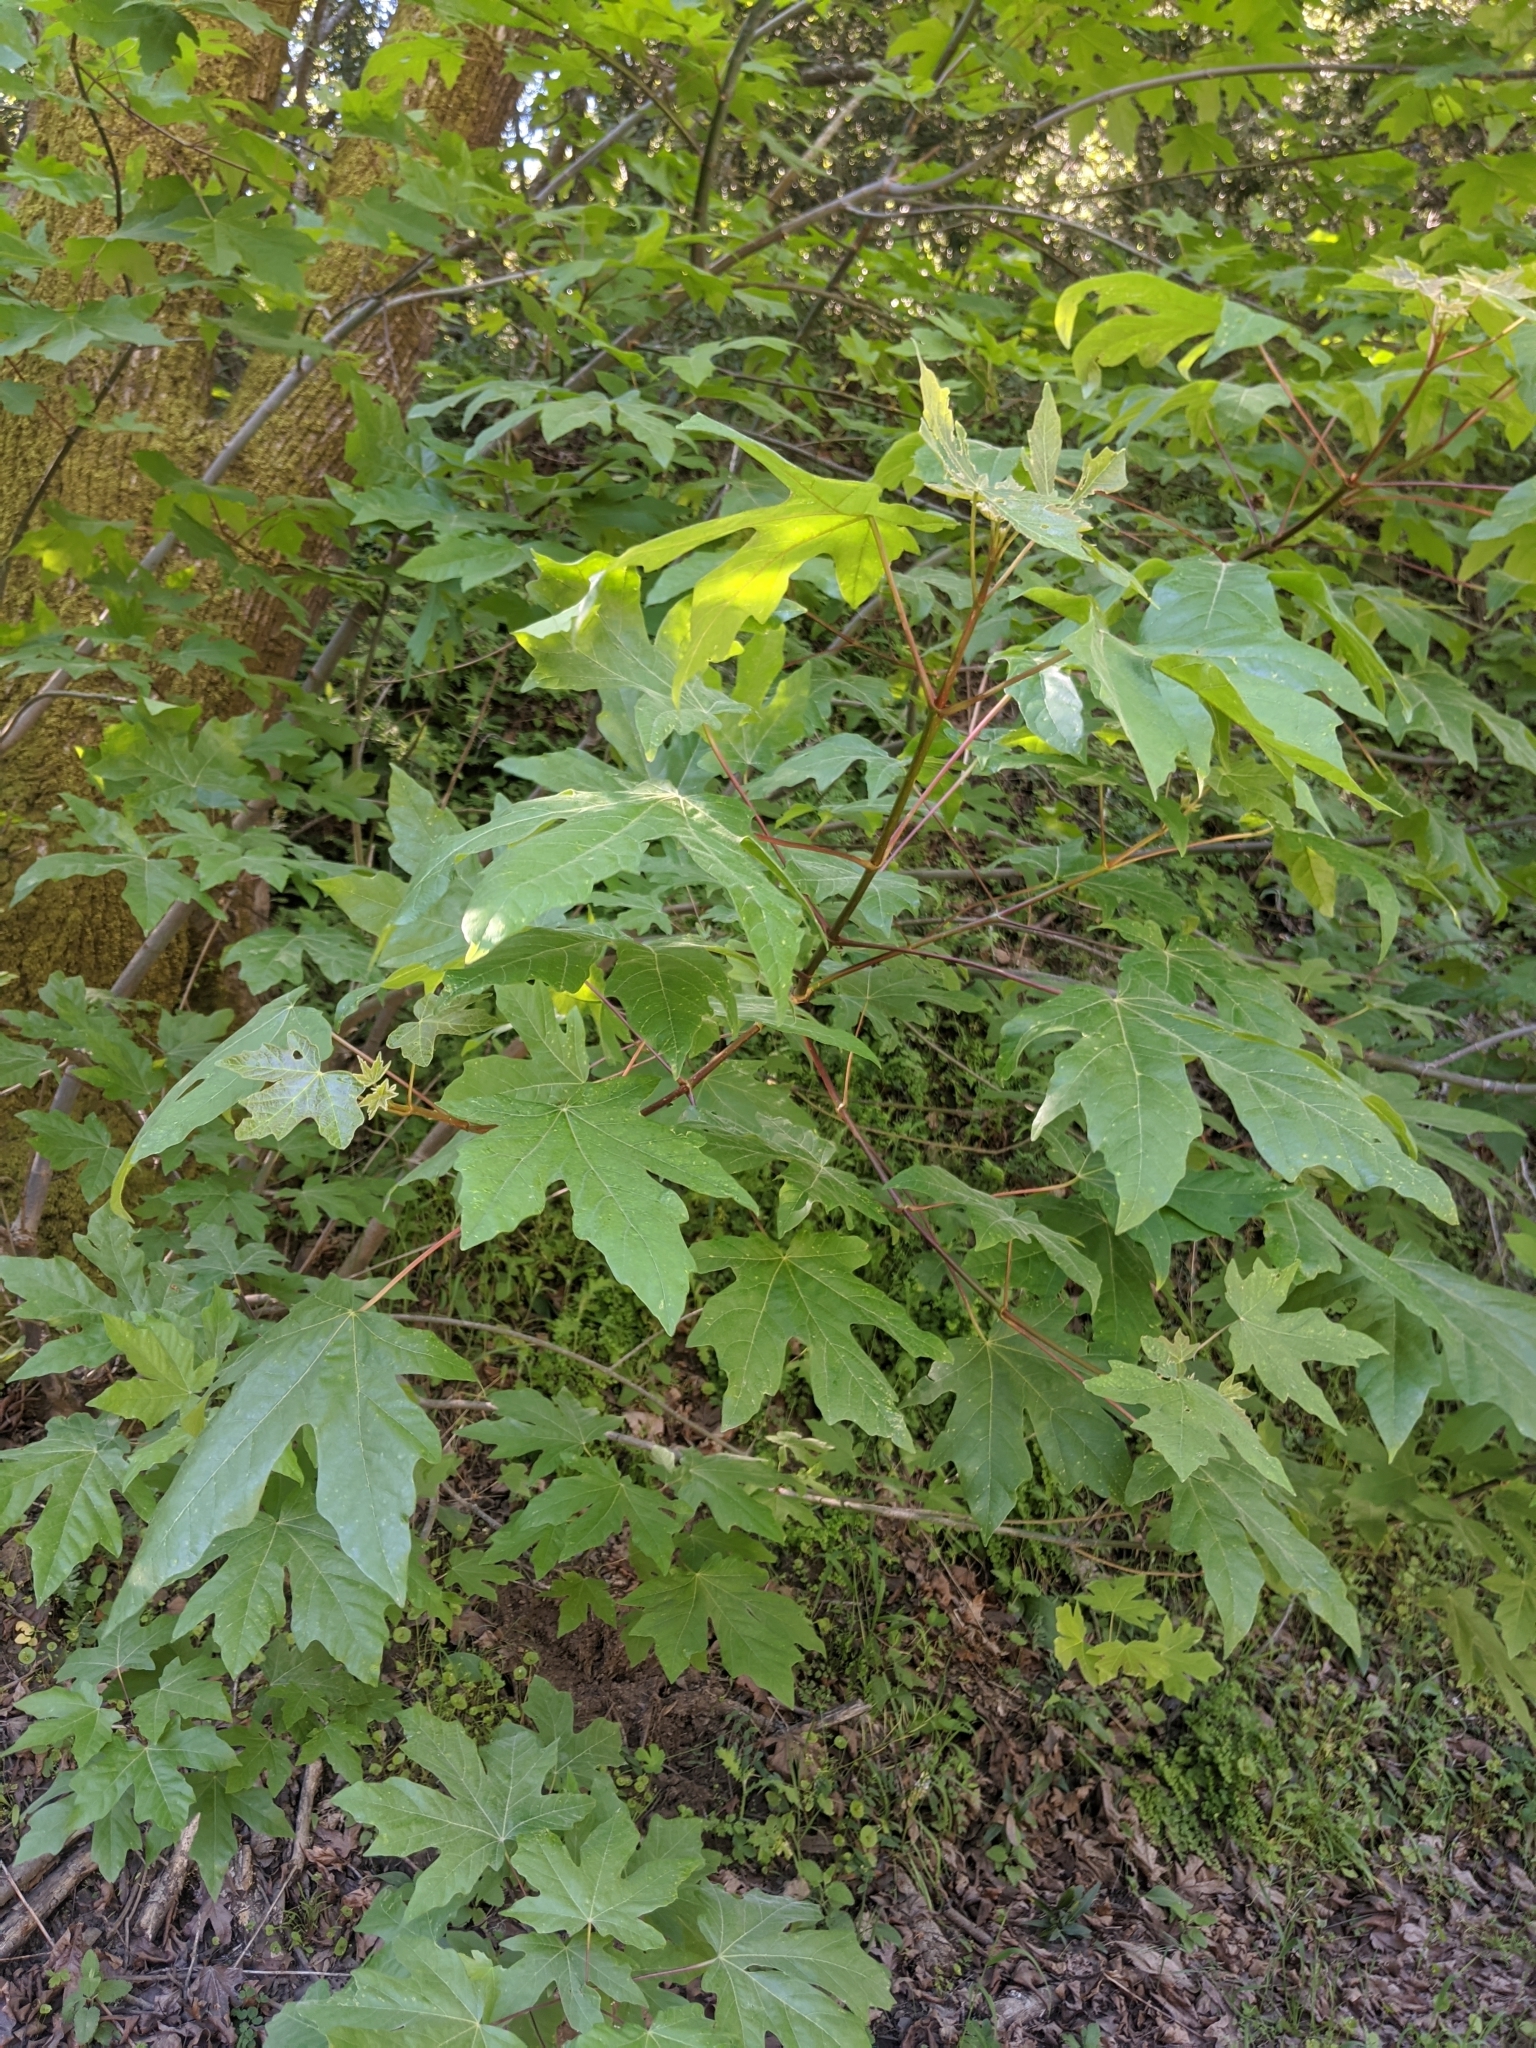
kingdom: Plantae
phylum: Tracheophyta
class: Magnoliopsida
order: Sapindales
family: Sapindaceae
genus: Acer
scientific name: Acer macrophyllum
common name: Oregon maple
